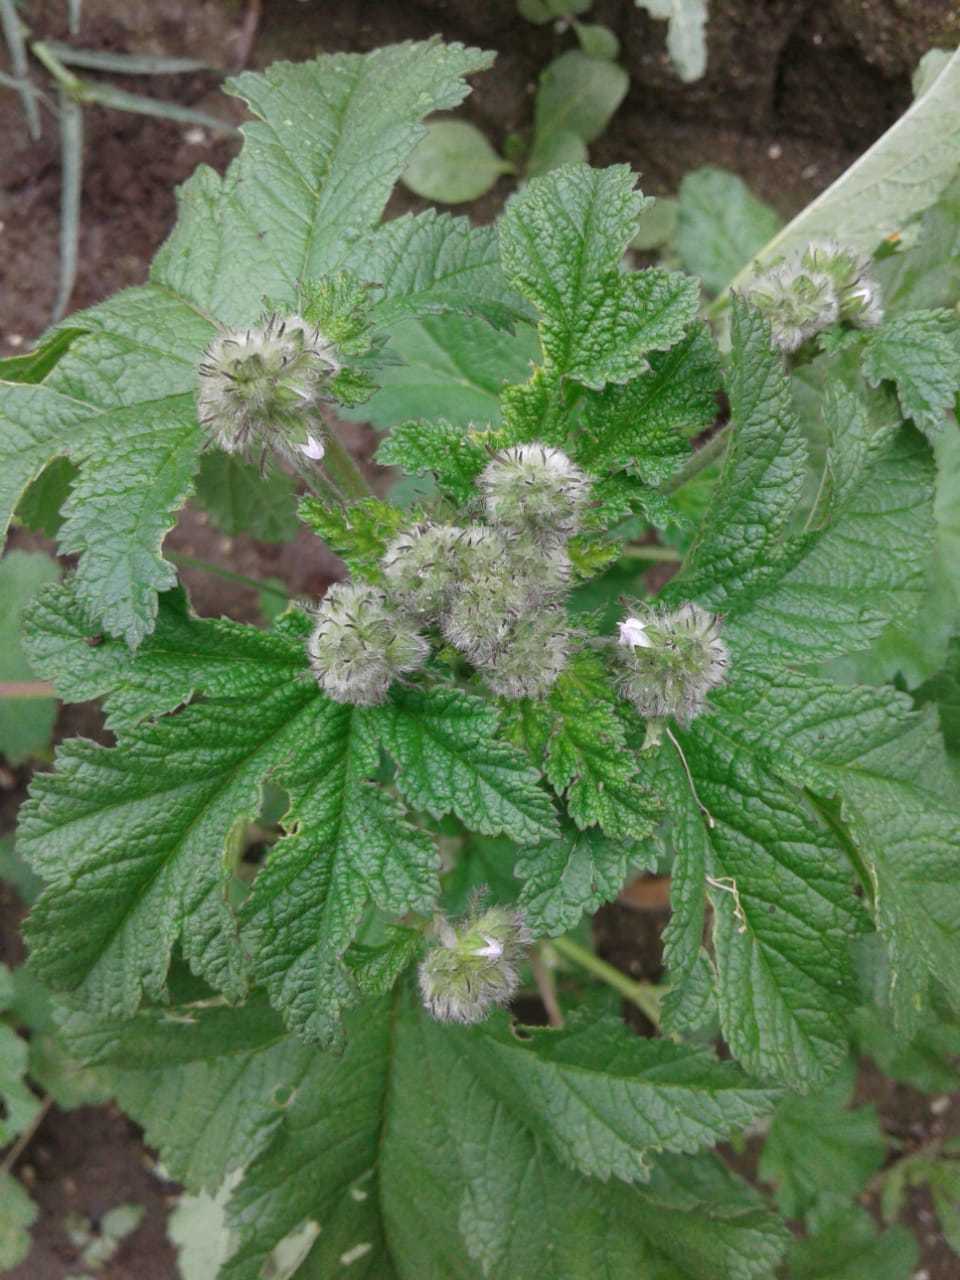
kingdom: Plantae
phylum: Tracheophyta
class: Magnoliopsida
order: Malvales
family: Malvaceae
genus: Fuertesimalva
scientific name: Fuertesimalva limensis
